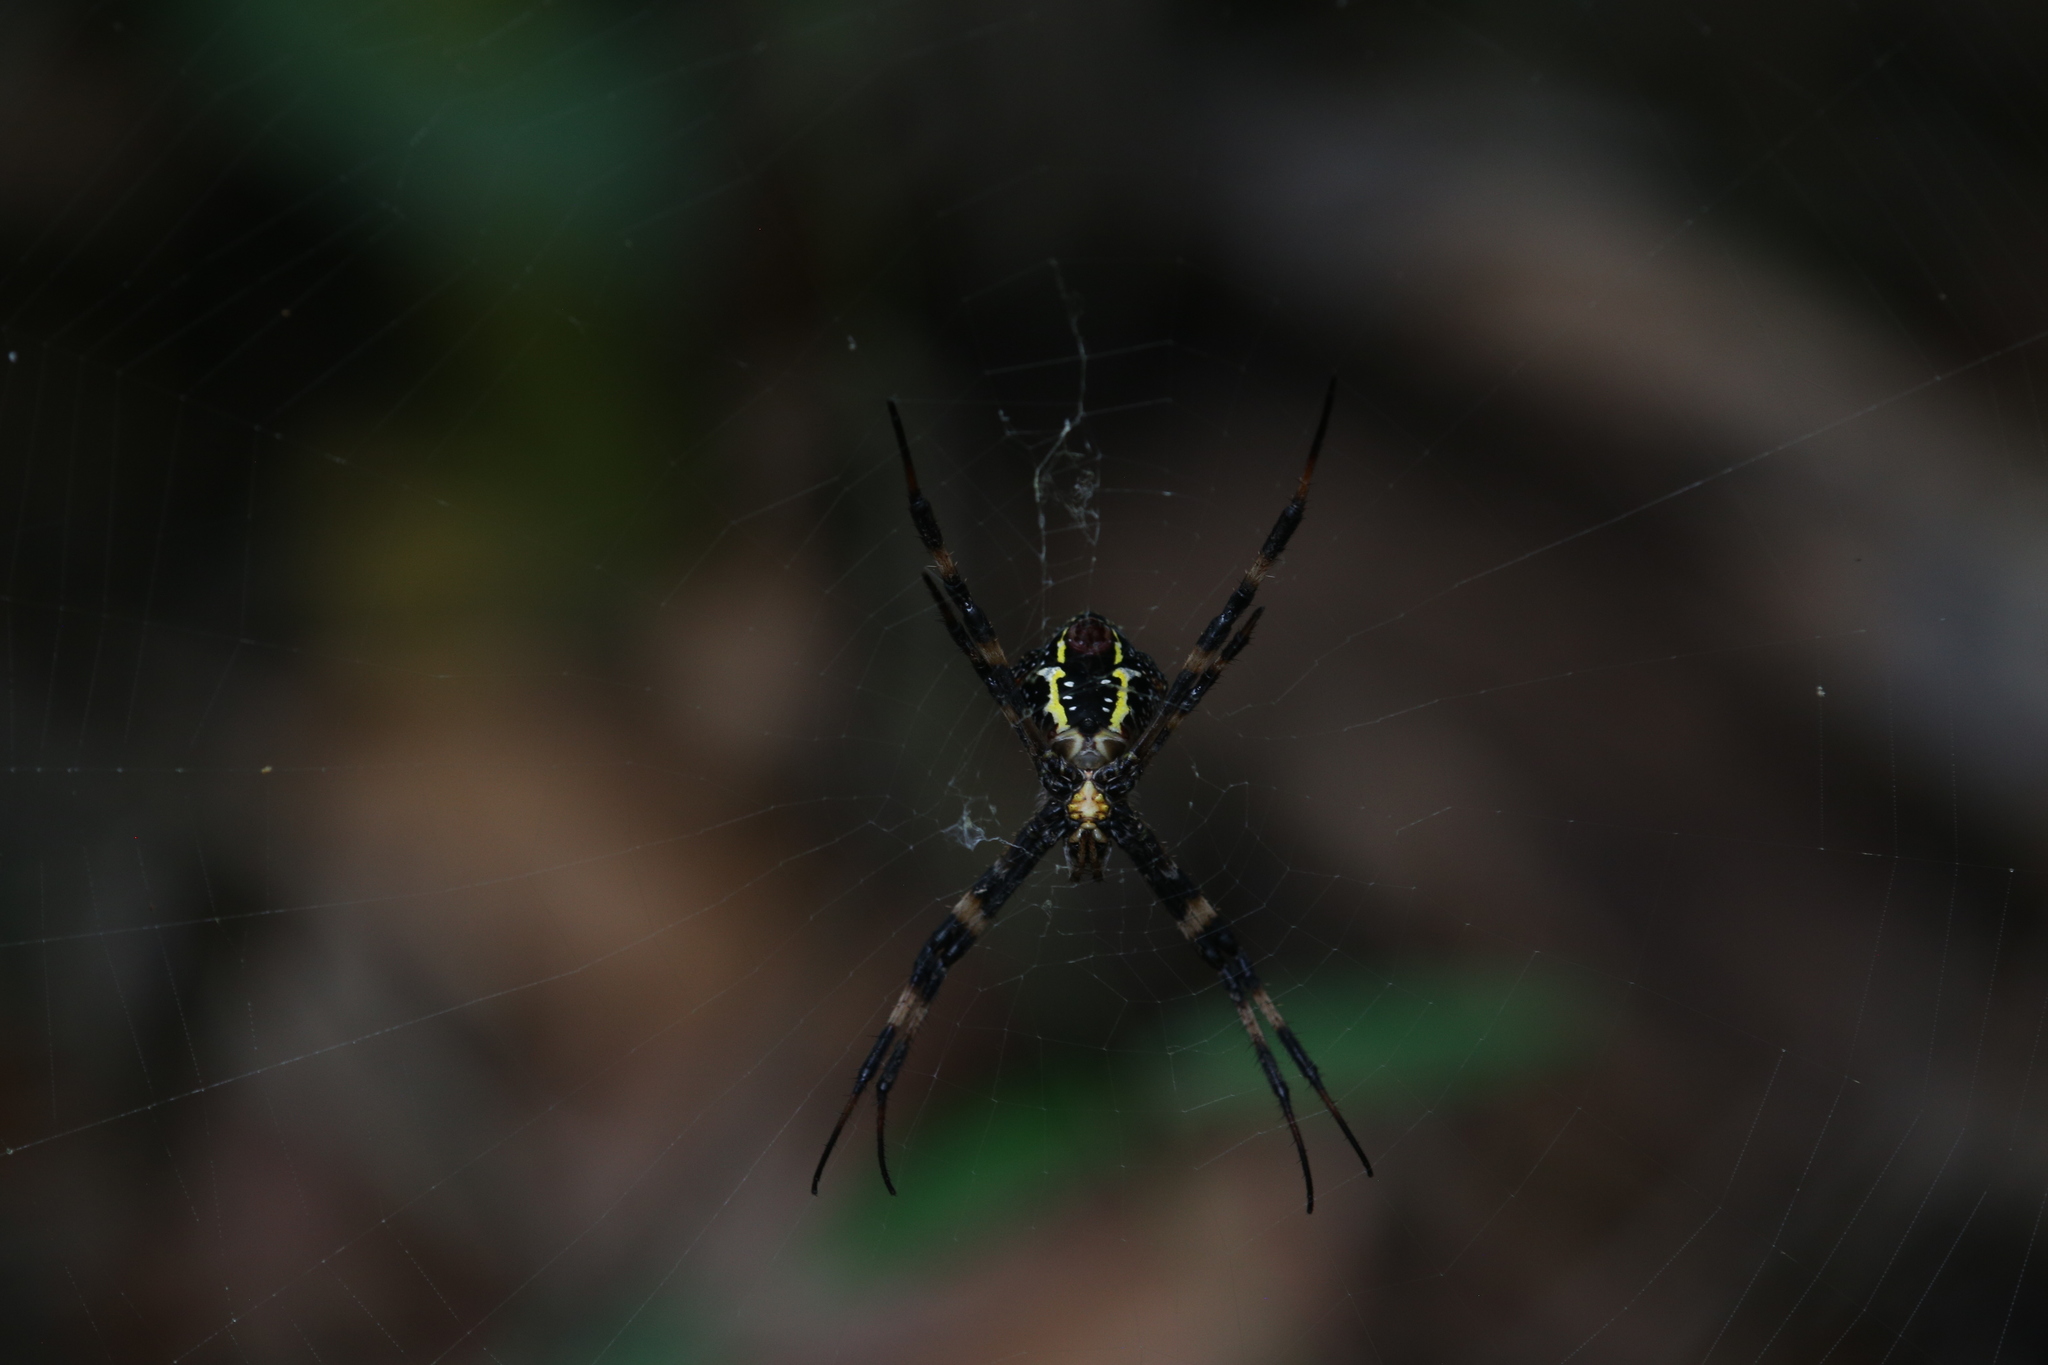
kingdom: Animalia
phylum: Arthropoda
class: Arachnida
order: Araneae
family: Araneidae
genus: Argiope
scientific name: Argiope aetherea
